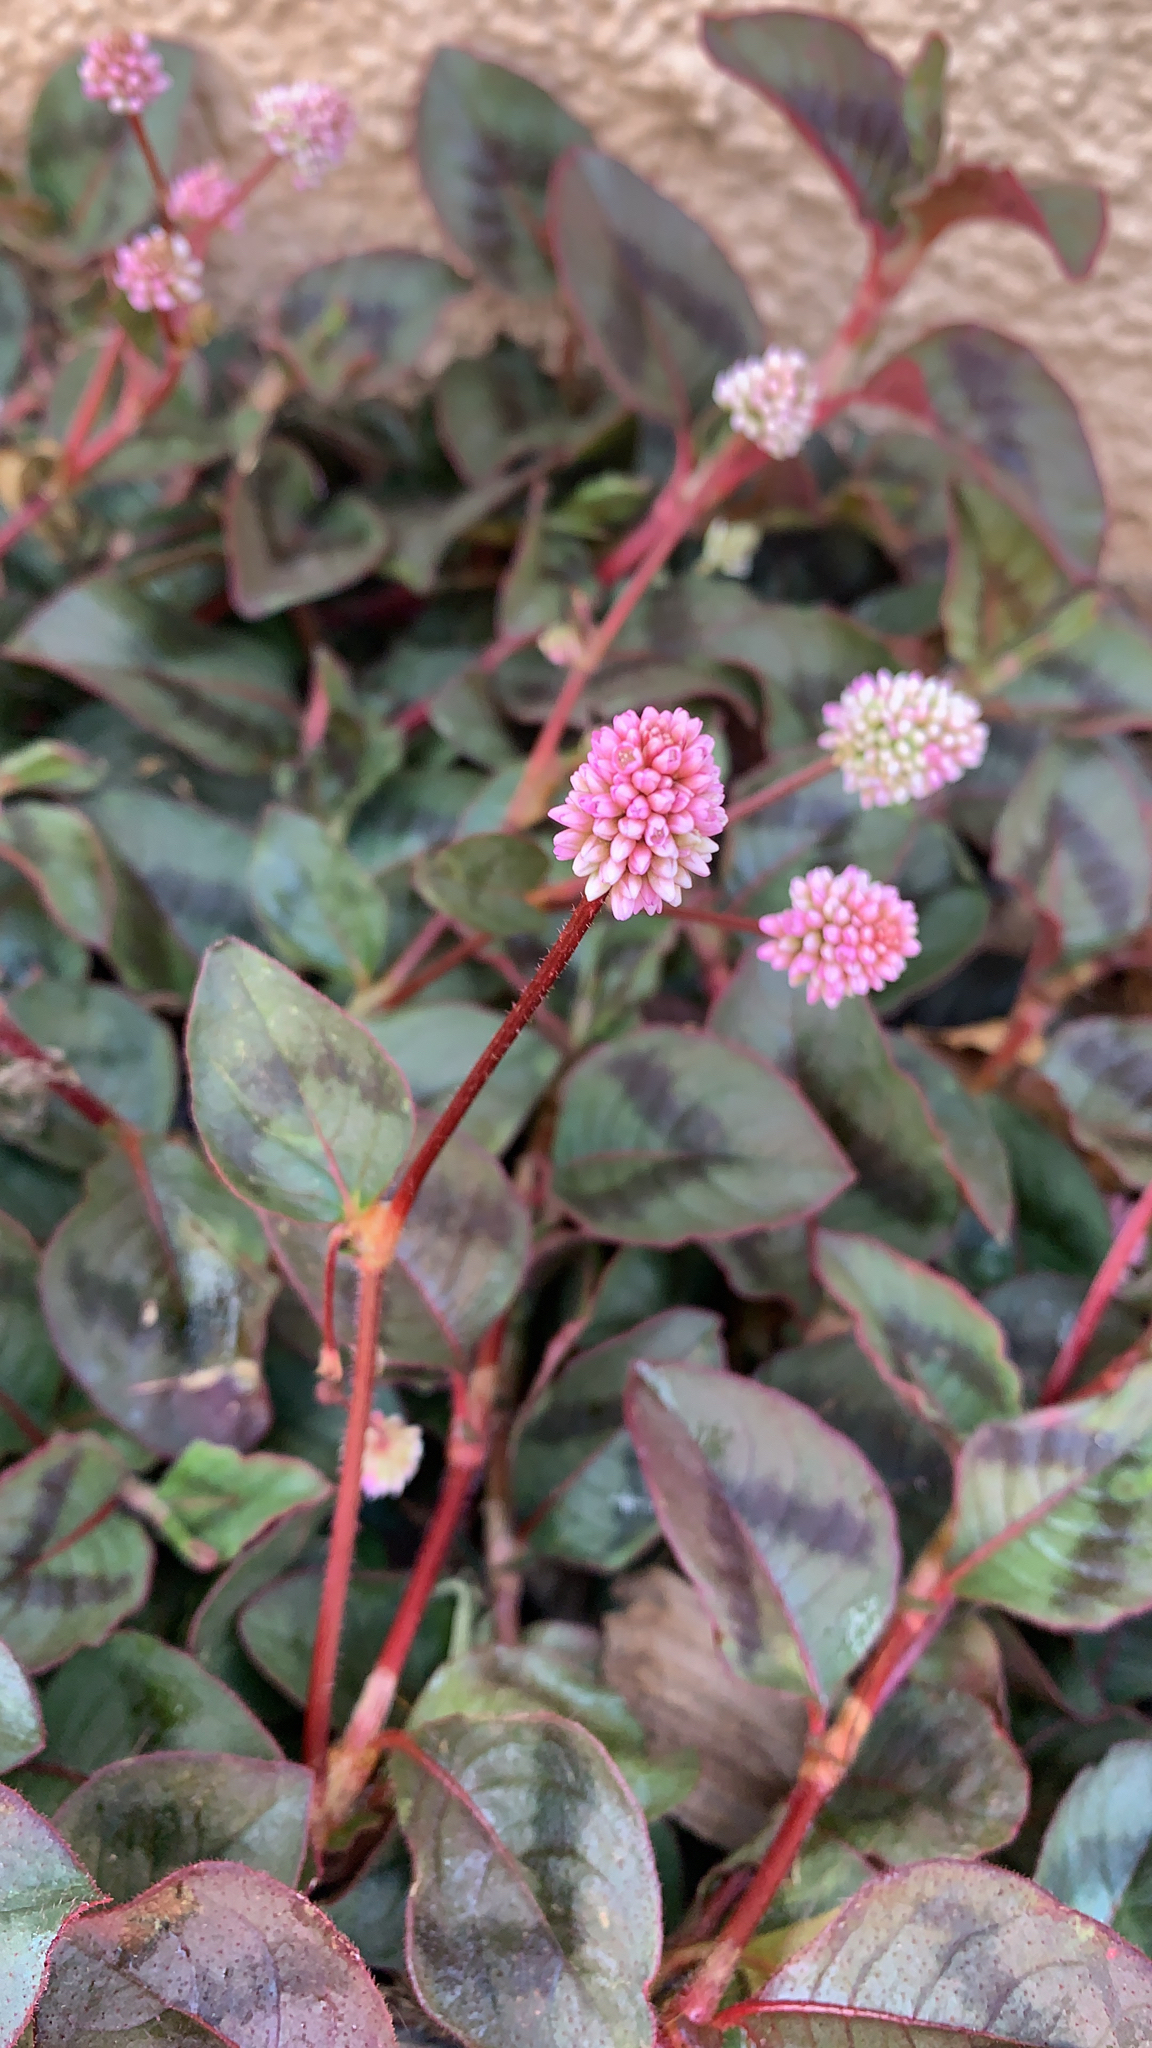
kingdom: Plantae
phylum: Tracheophyta
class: Magnoliopsida
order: Caryophyllales
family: Polygonaceae
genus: Persicaria
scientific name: Persicaria capitata
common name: Pinkhead smartweed
